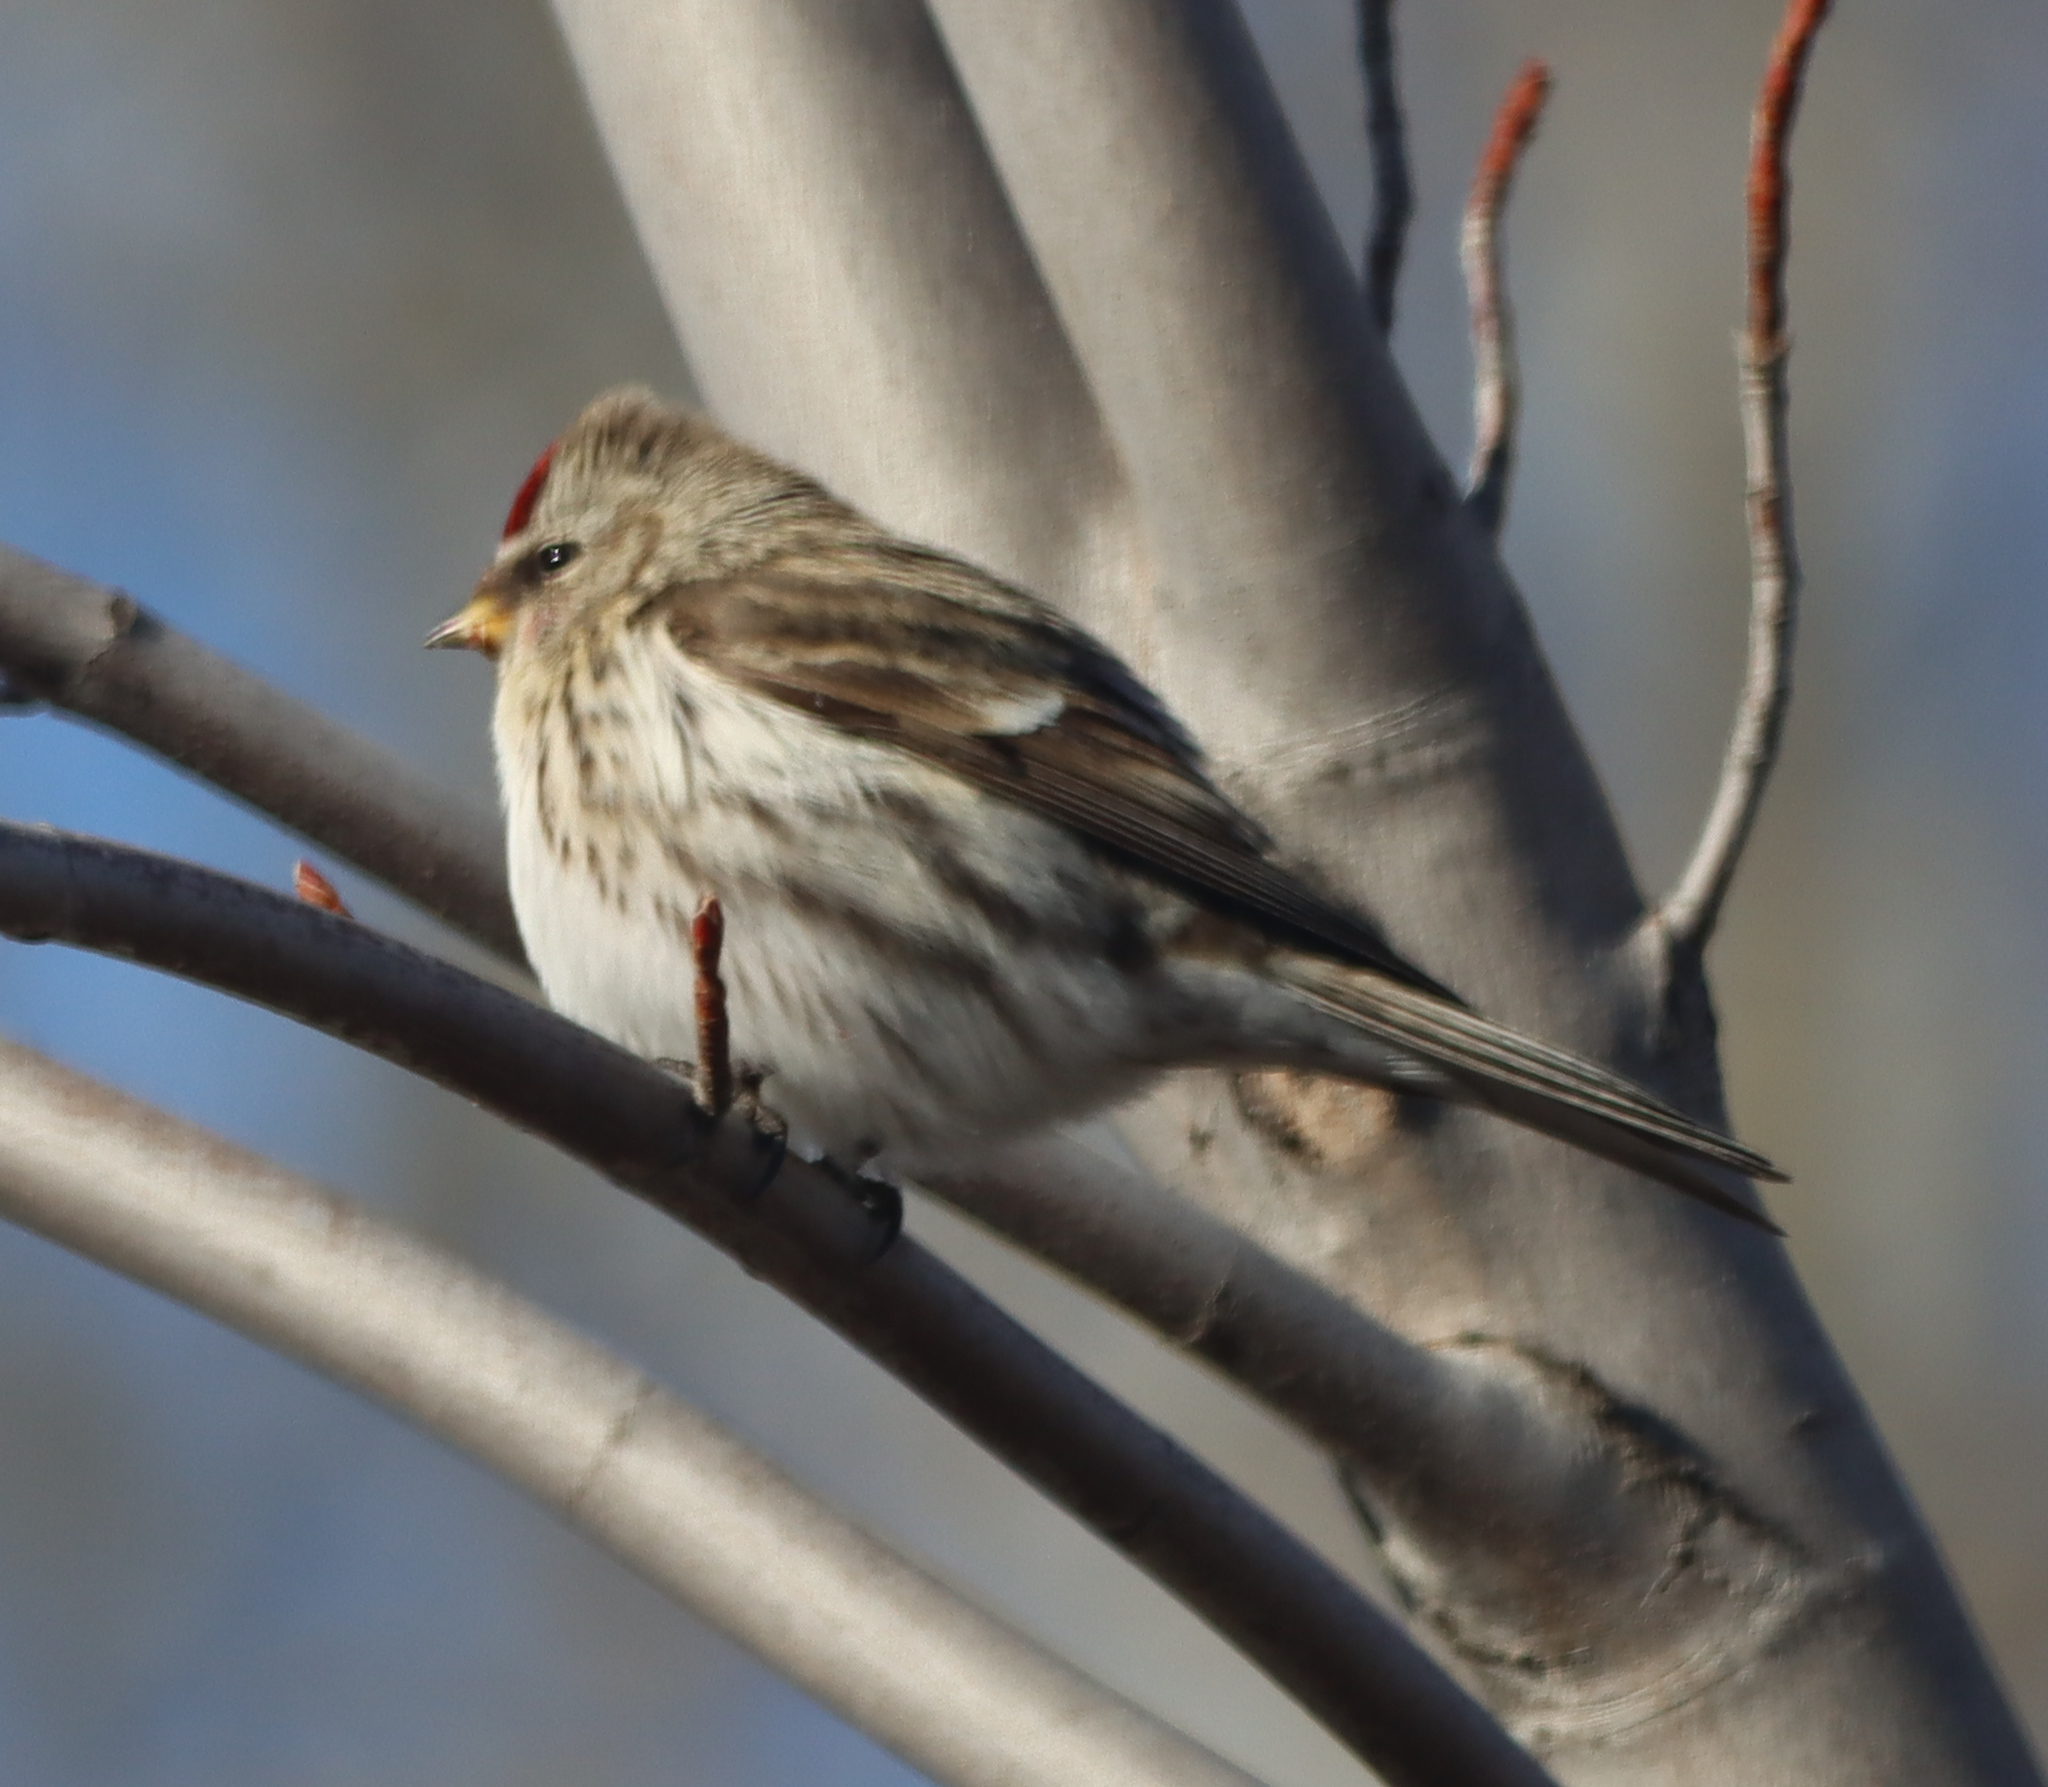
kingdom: Animalia
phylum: Chordata
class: Aves
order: Passeriformes
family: Fringillidae
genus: Acanthis
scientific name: Acanthis flammea
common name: Common redpoll
